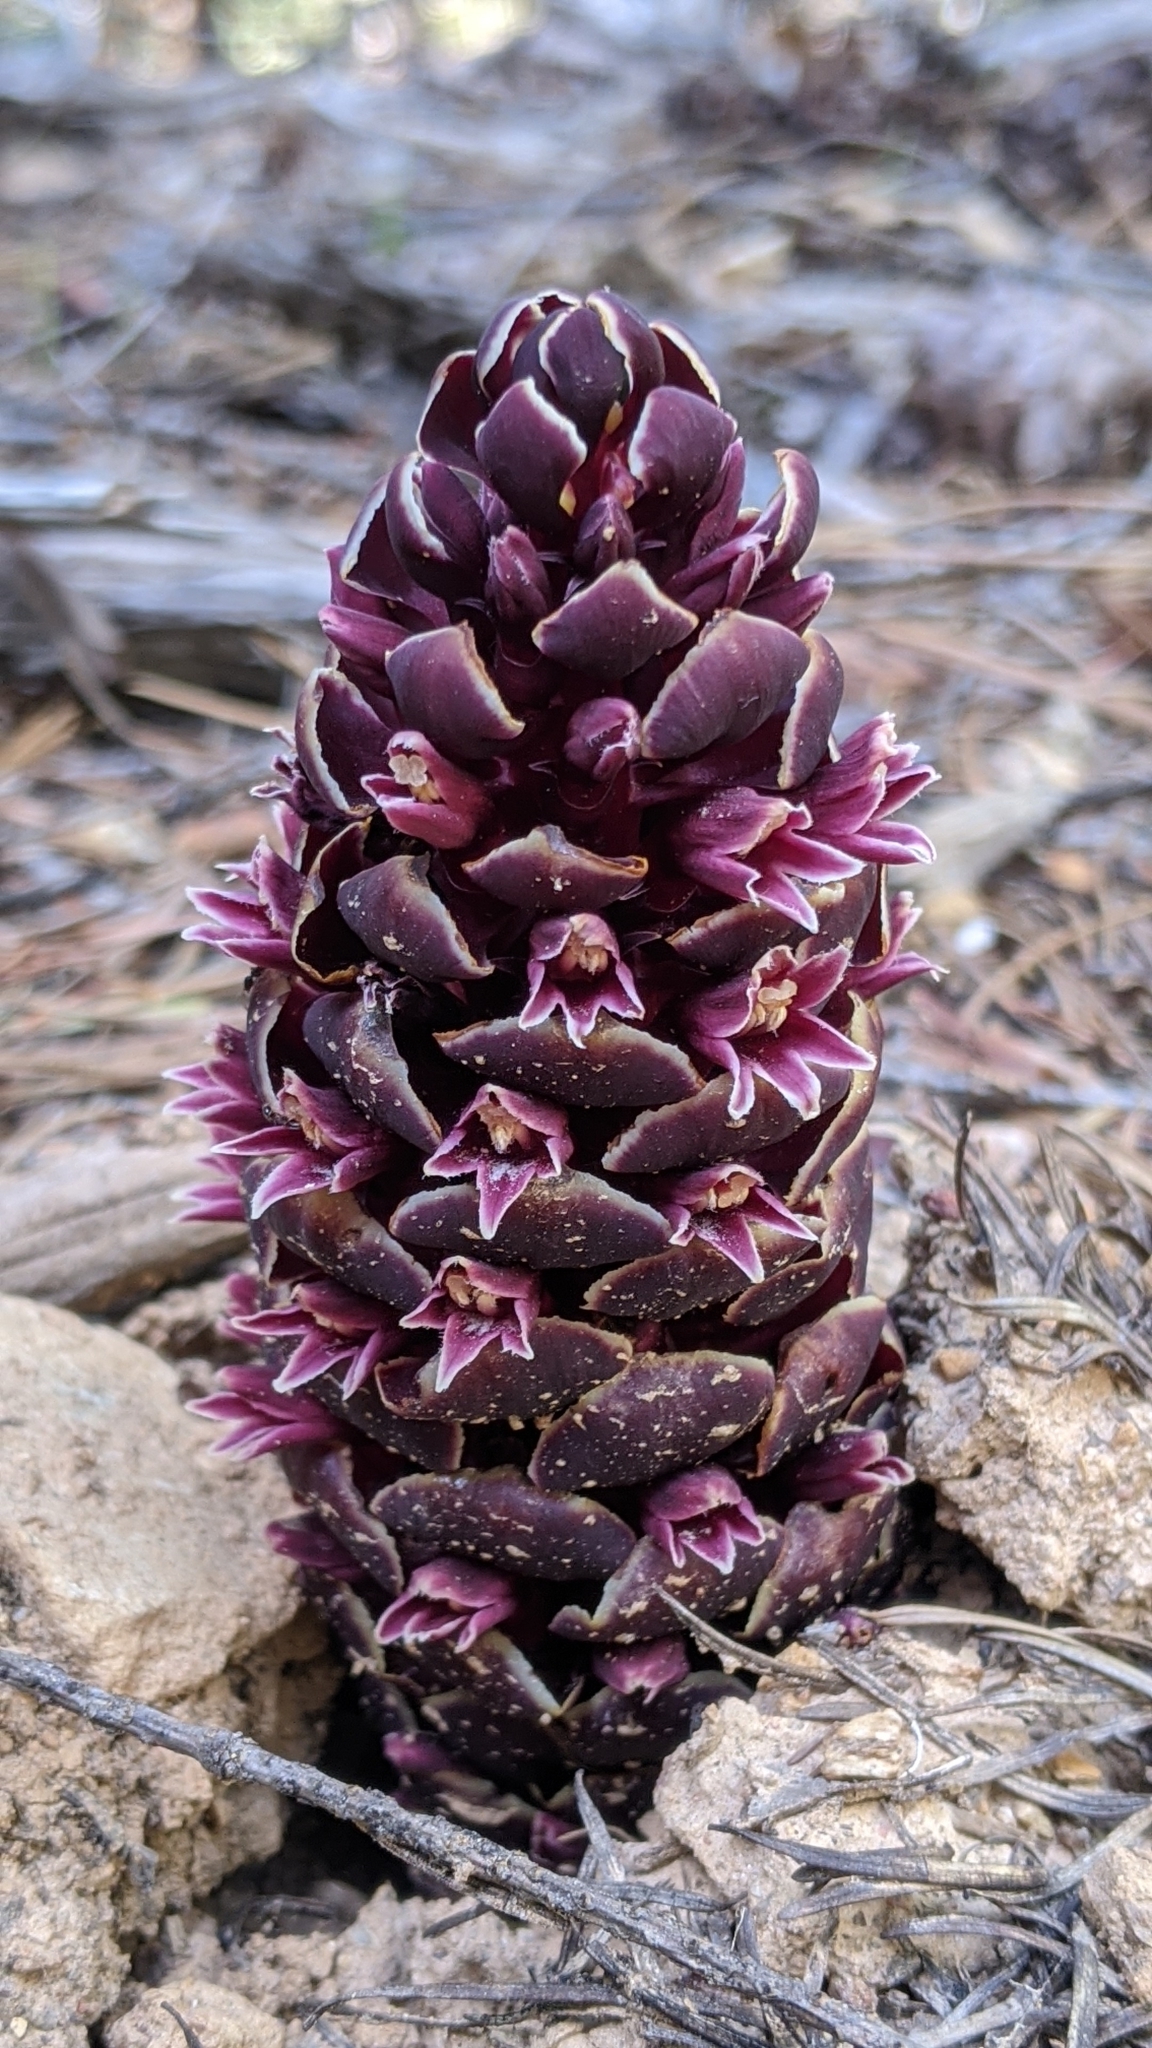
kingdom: Plantae
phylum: Tracheophyta
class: Magnoliopsida
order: Lamiales
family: Orobanchaceae
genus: Kopsiopsis
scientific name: Kopsiopsis strobilacea
